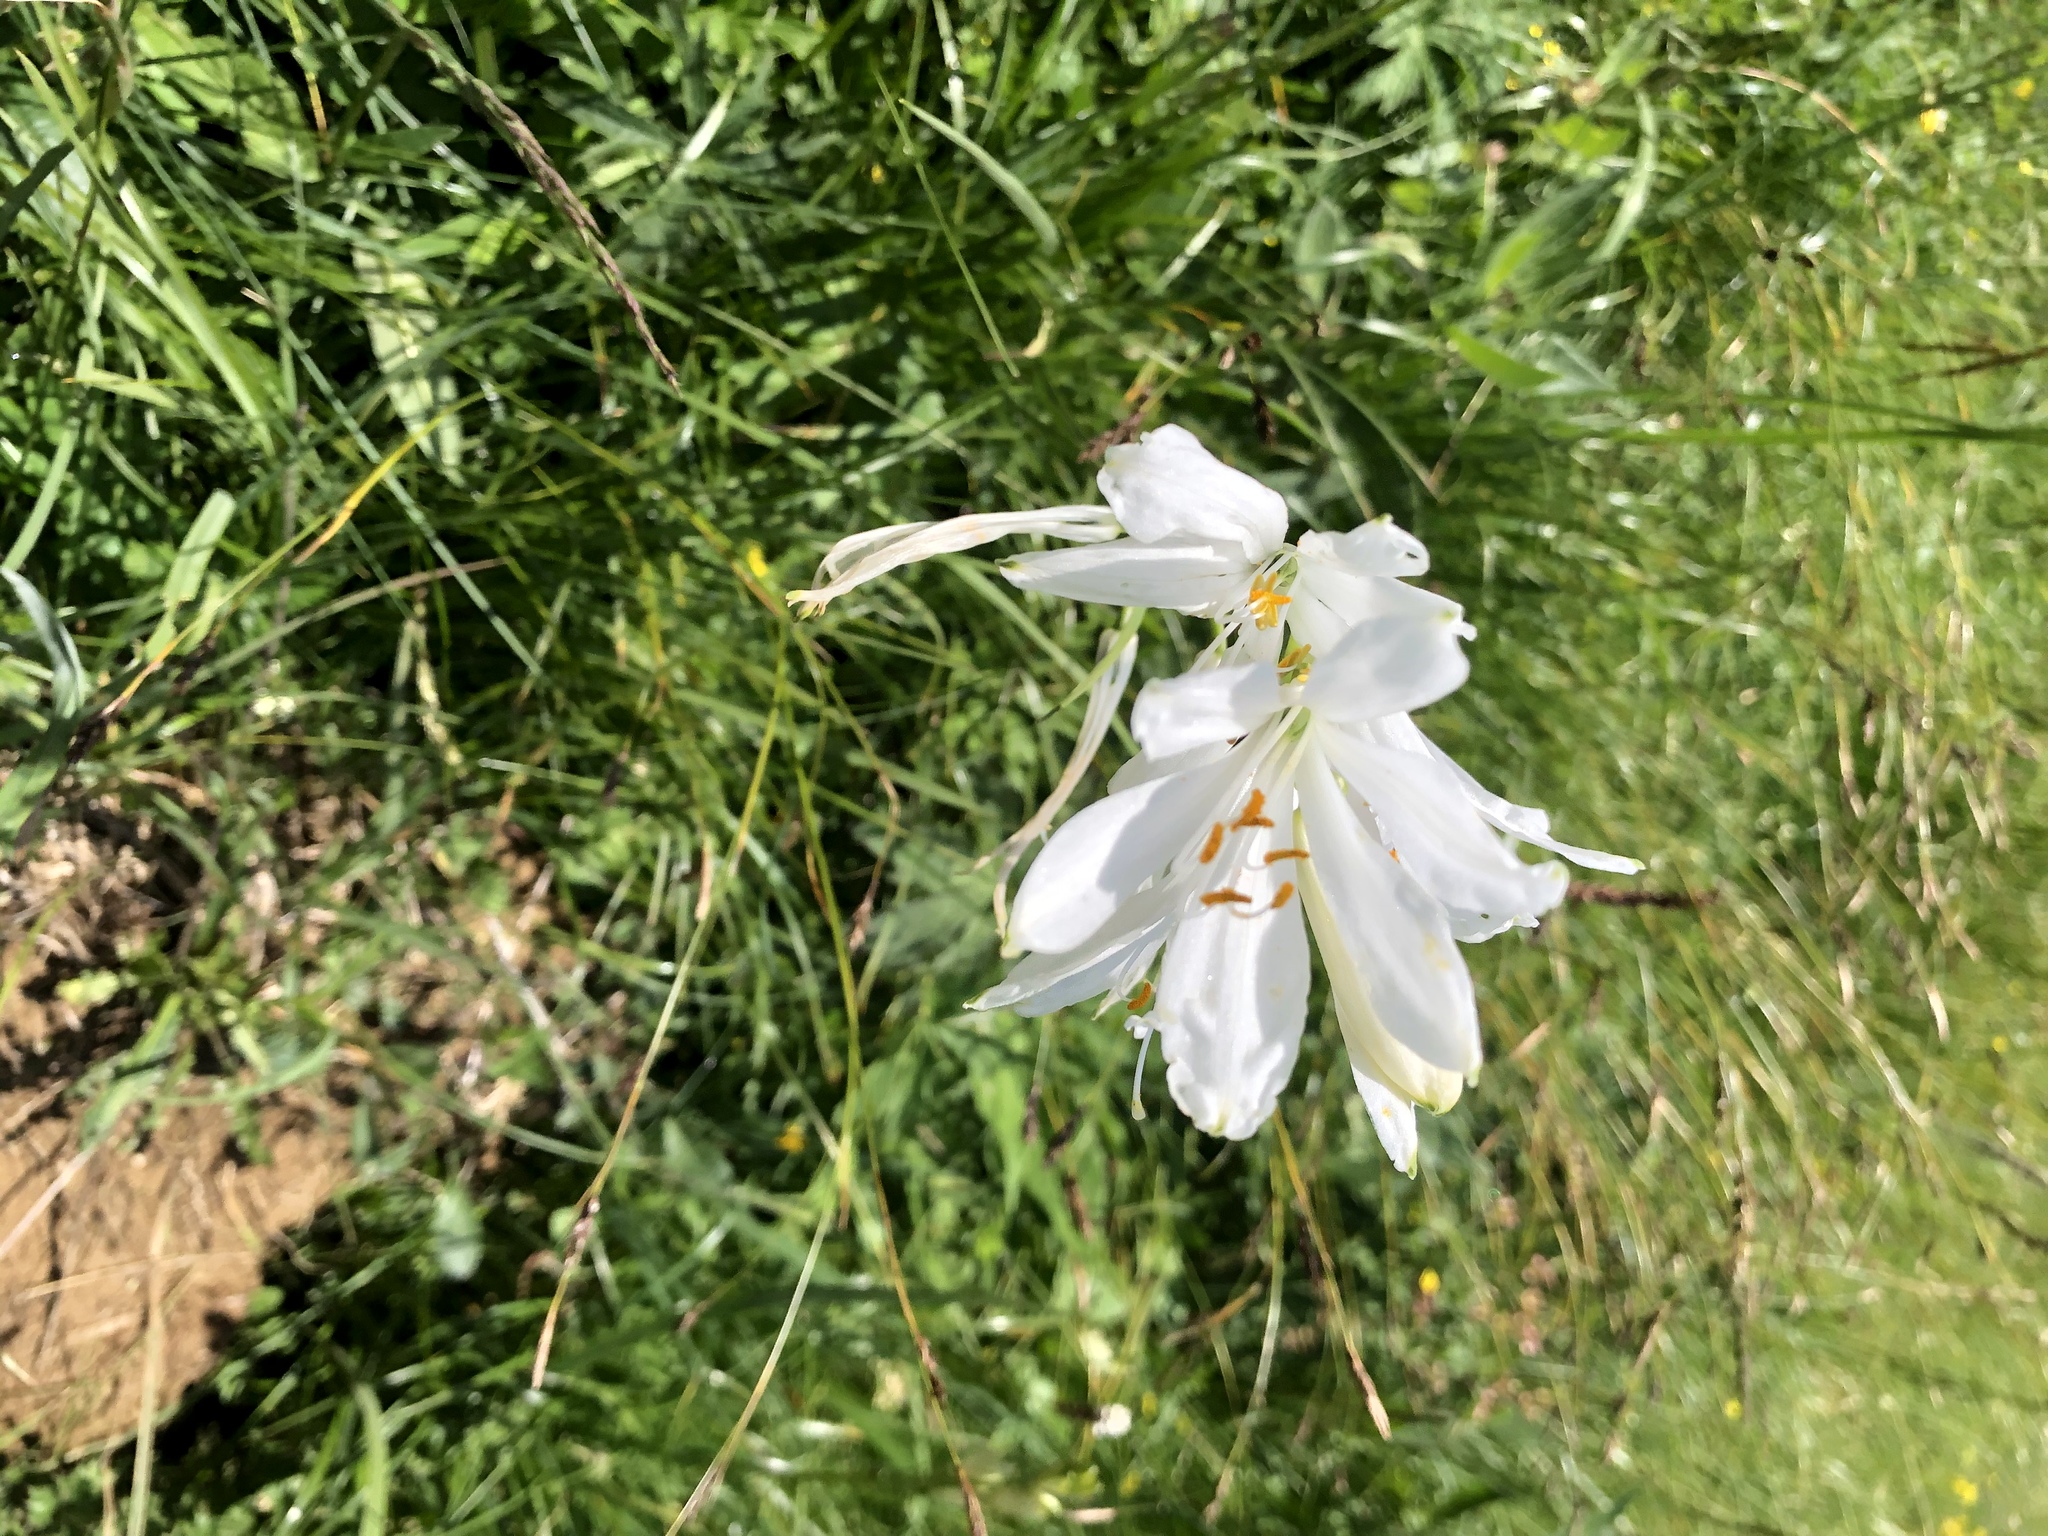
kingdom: Plantae
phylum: Tracheophyta
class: Liliopsida
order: Asparagales
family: Asparagaceae
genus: Paradisea
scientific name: Paradisea liliastrum
